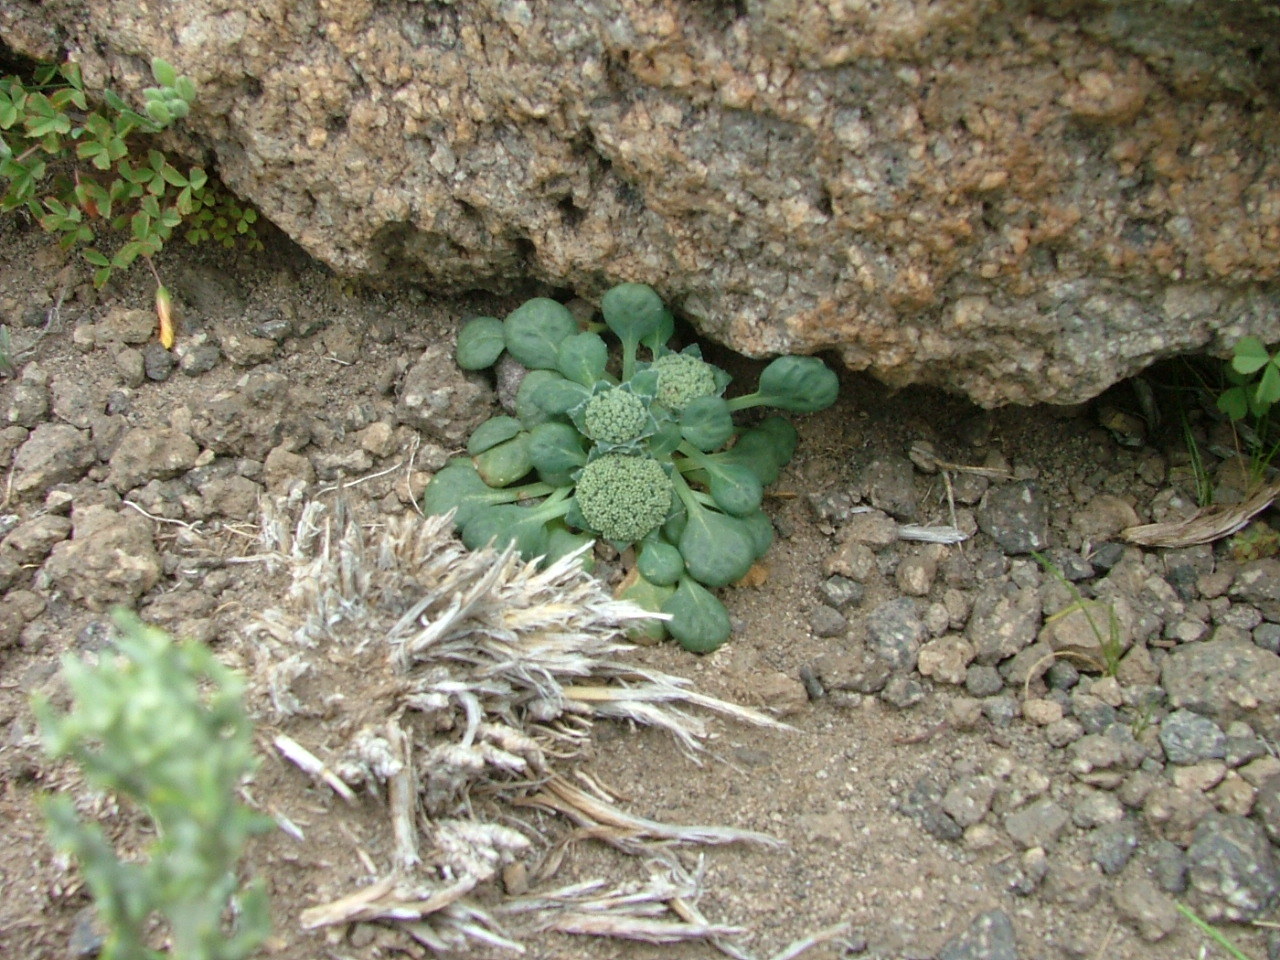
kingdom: Plantae
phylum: Tracheophyta
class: Magnoliopsida
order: Asterales
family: Calyceraceae
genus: Leucocera
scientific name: Leucocera pterocalyx
